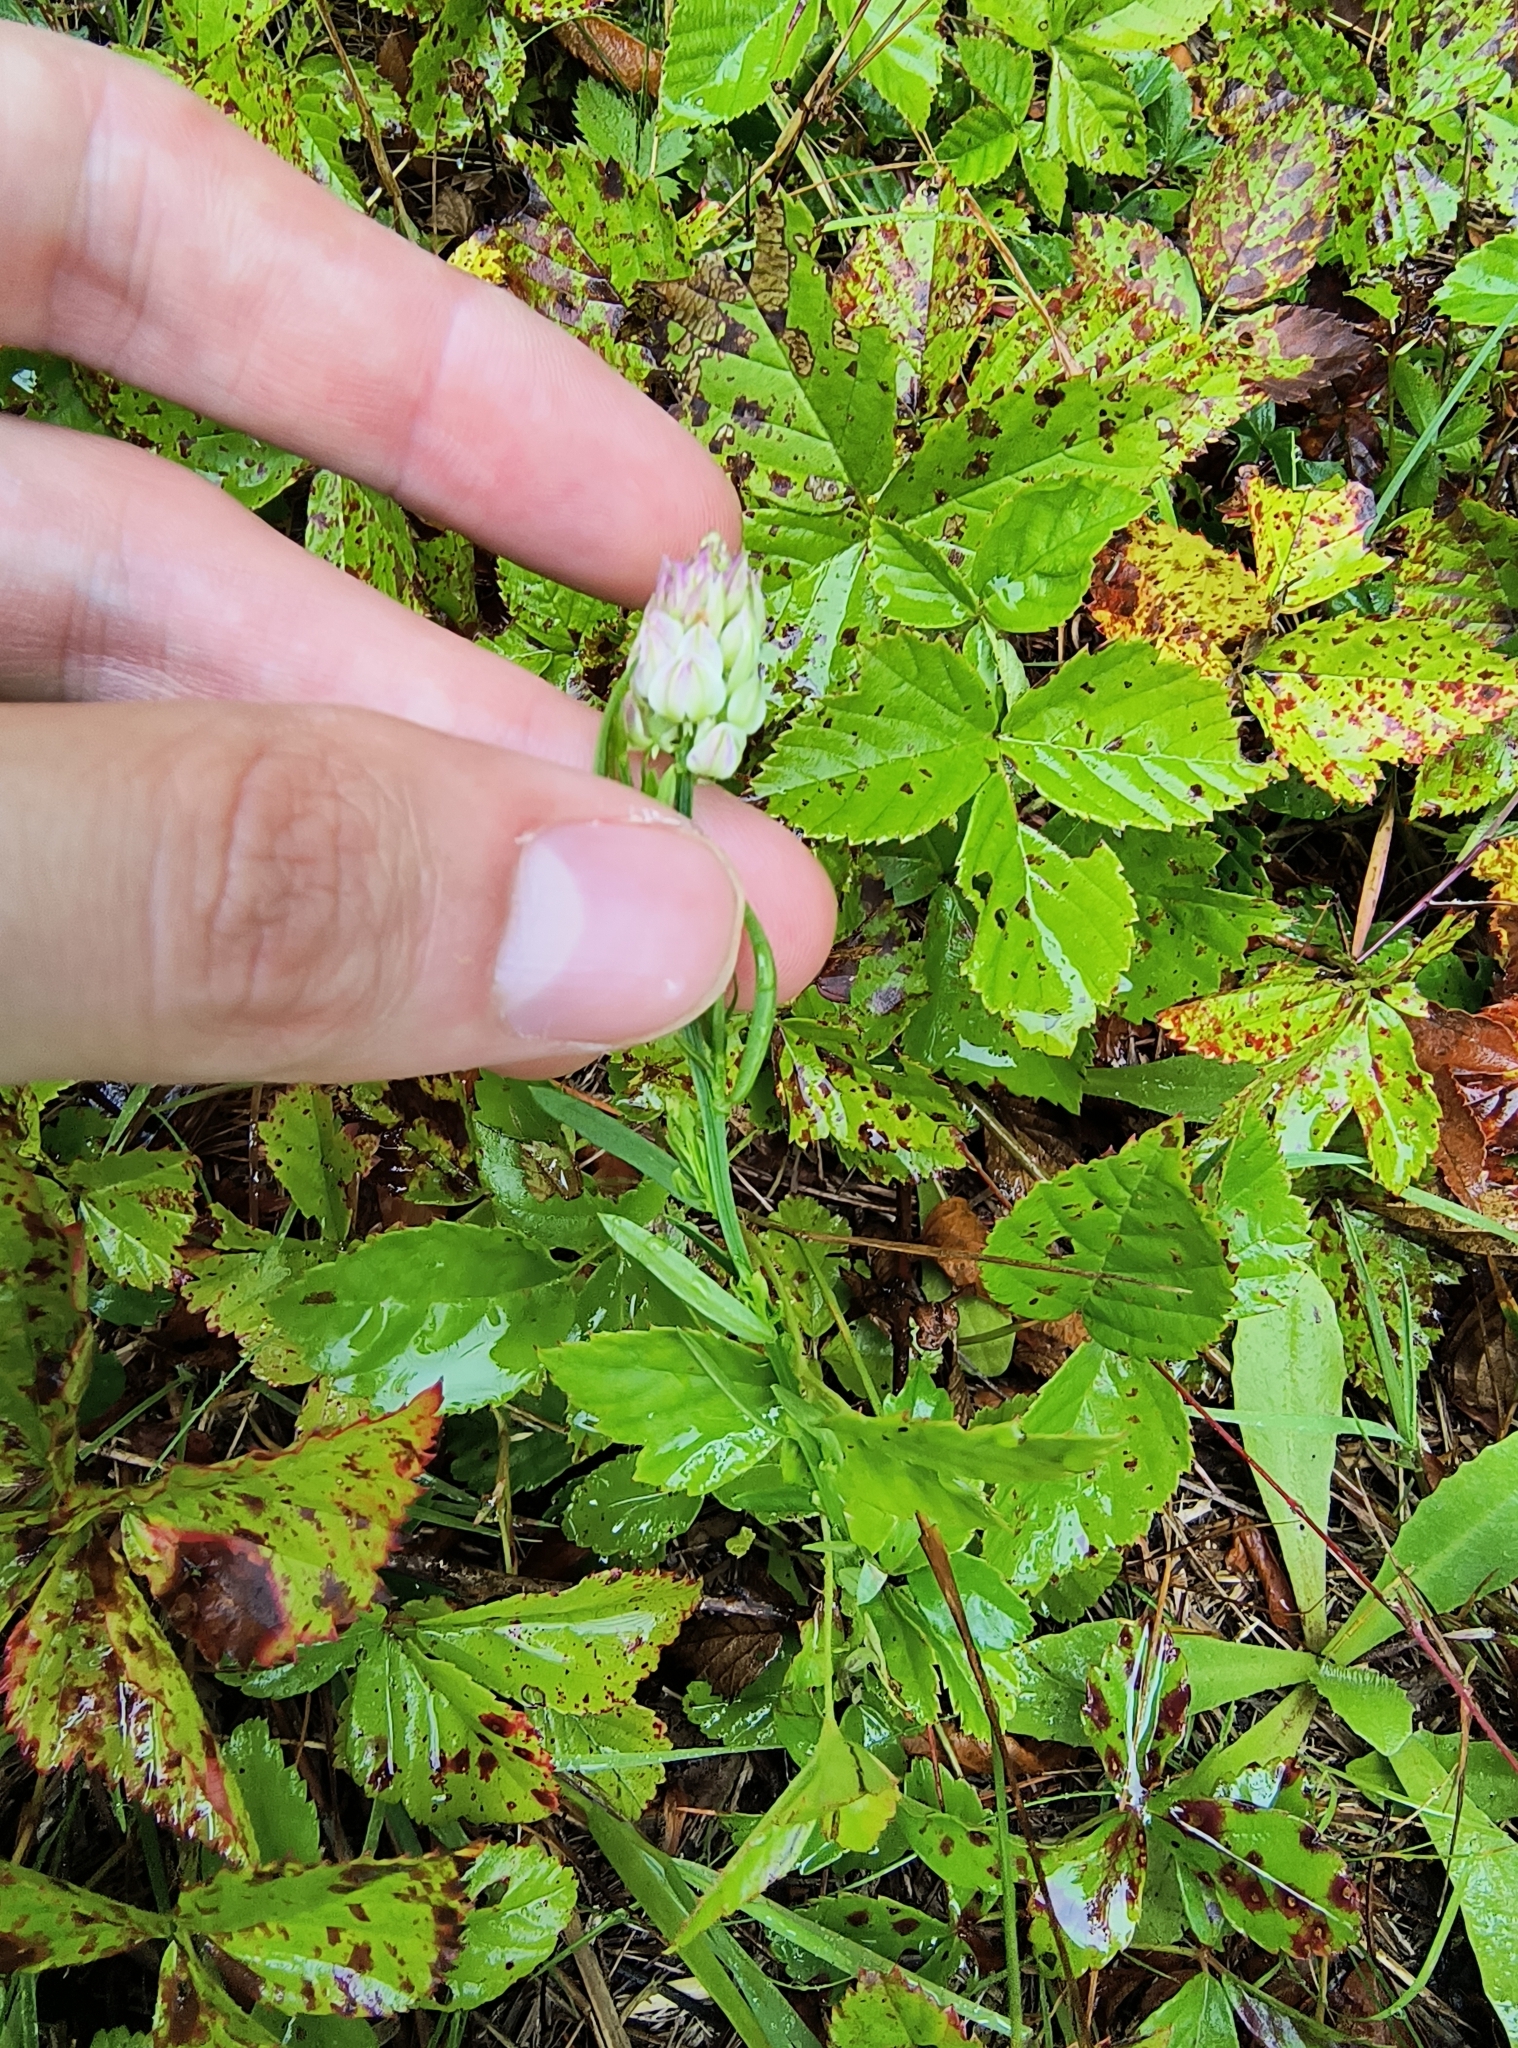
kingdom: Plantae
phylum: Tracheophyta
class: Magnoliopsida
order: Fabales
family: Polygalaceae
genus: Polygala
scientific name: Polygala sanguinea
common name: Blood milkwort
